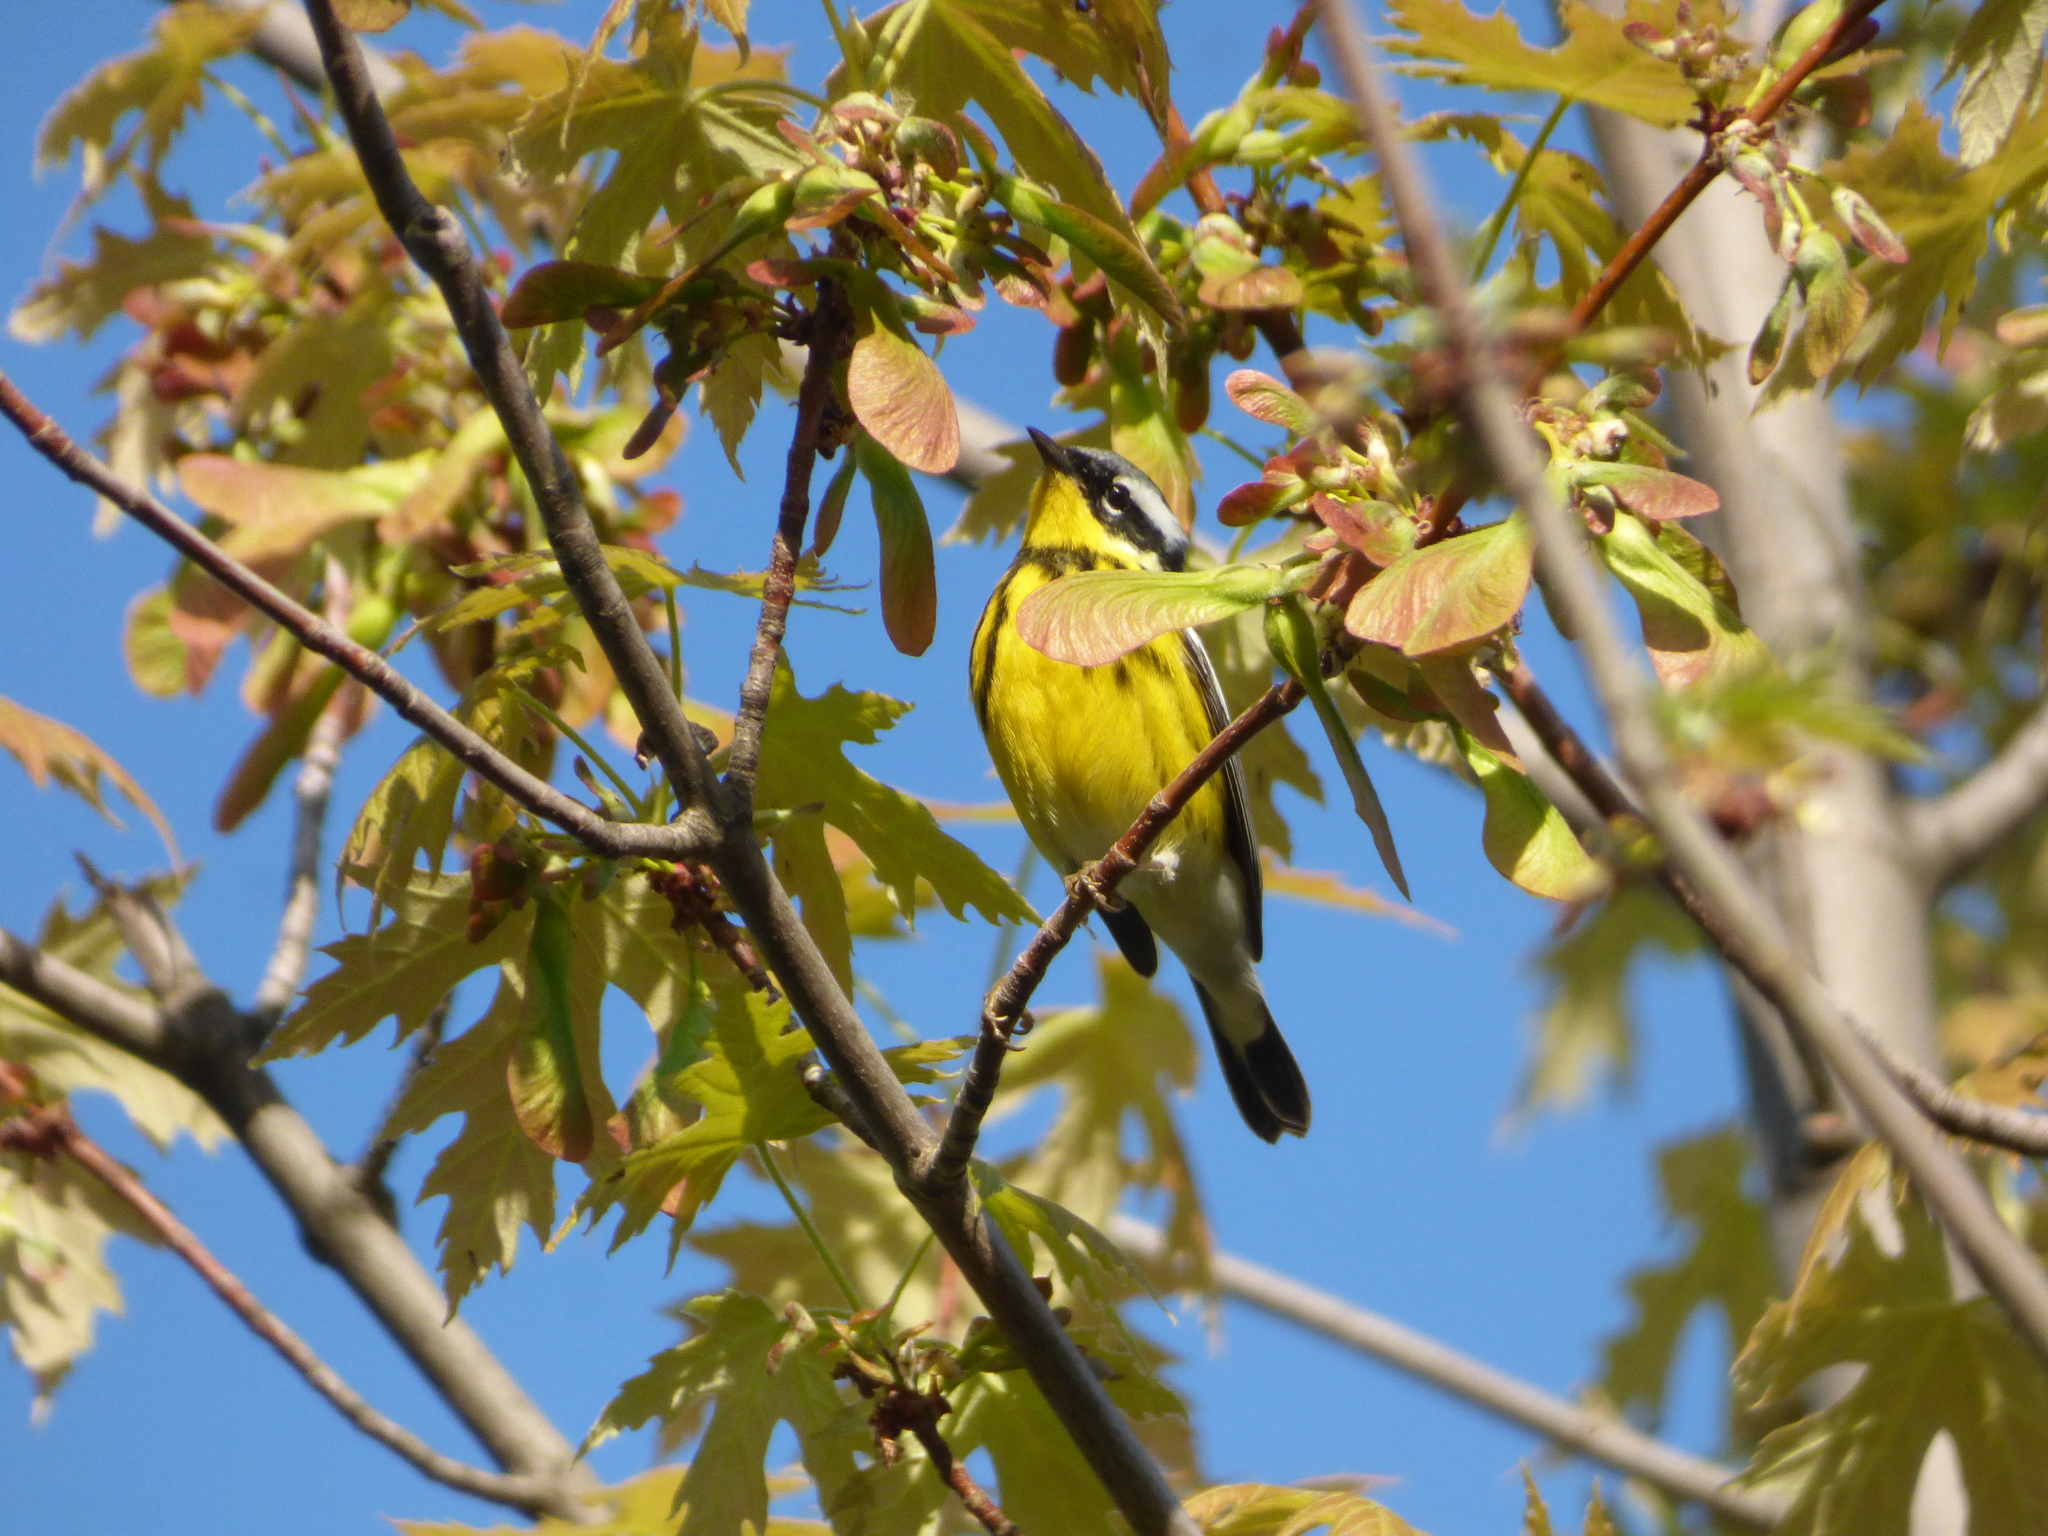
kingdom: Animalia
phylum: Chordata
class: Aves
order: Passeriformes
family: Parulidae
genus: Setophaga
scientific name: Setophaga magnolia
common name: Magnolia warbler
